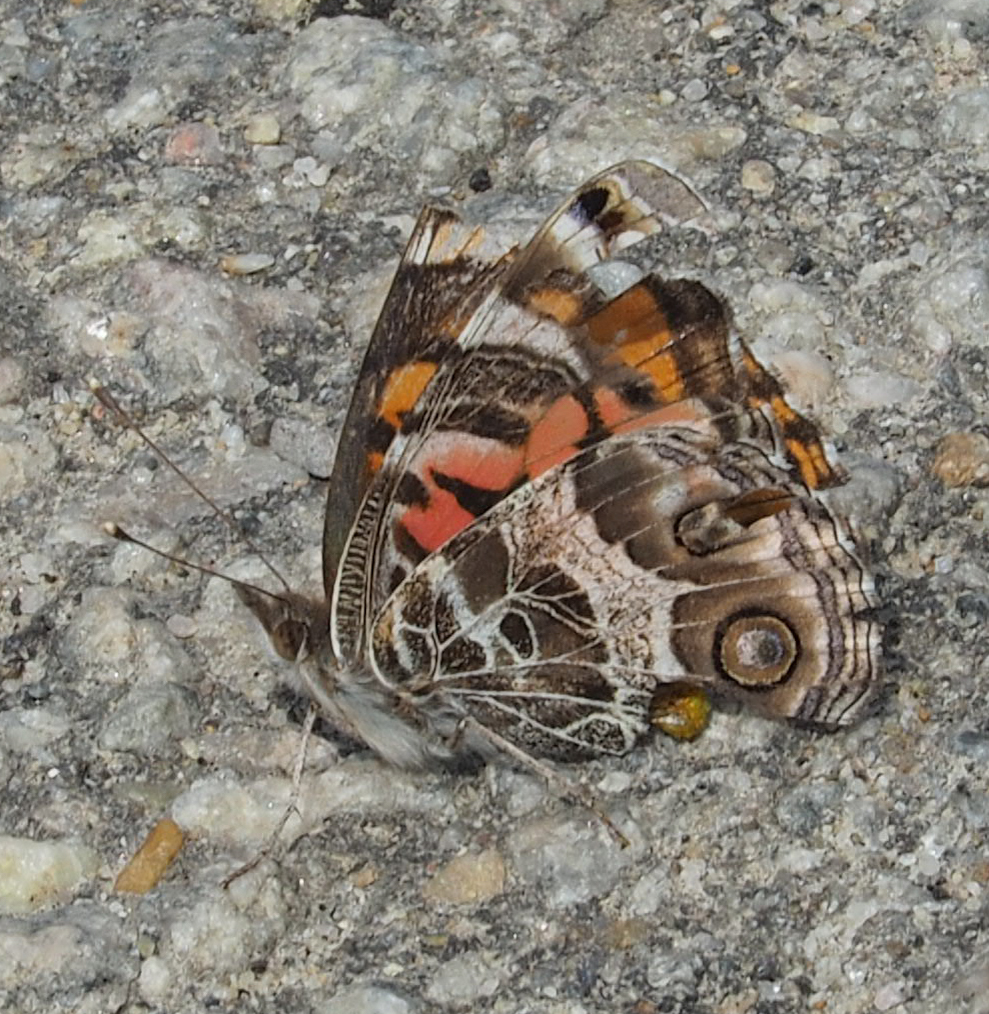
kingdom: Animalia
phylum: Arthropoda
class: Insecta
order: Lepidoptera
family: Nymphalidae
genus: Vanessa
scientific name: Vanessa virginiensis
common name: American lady
